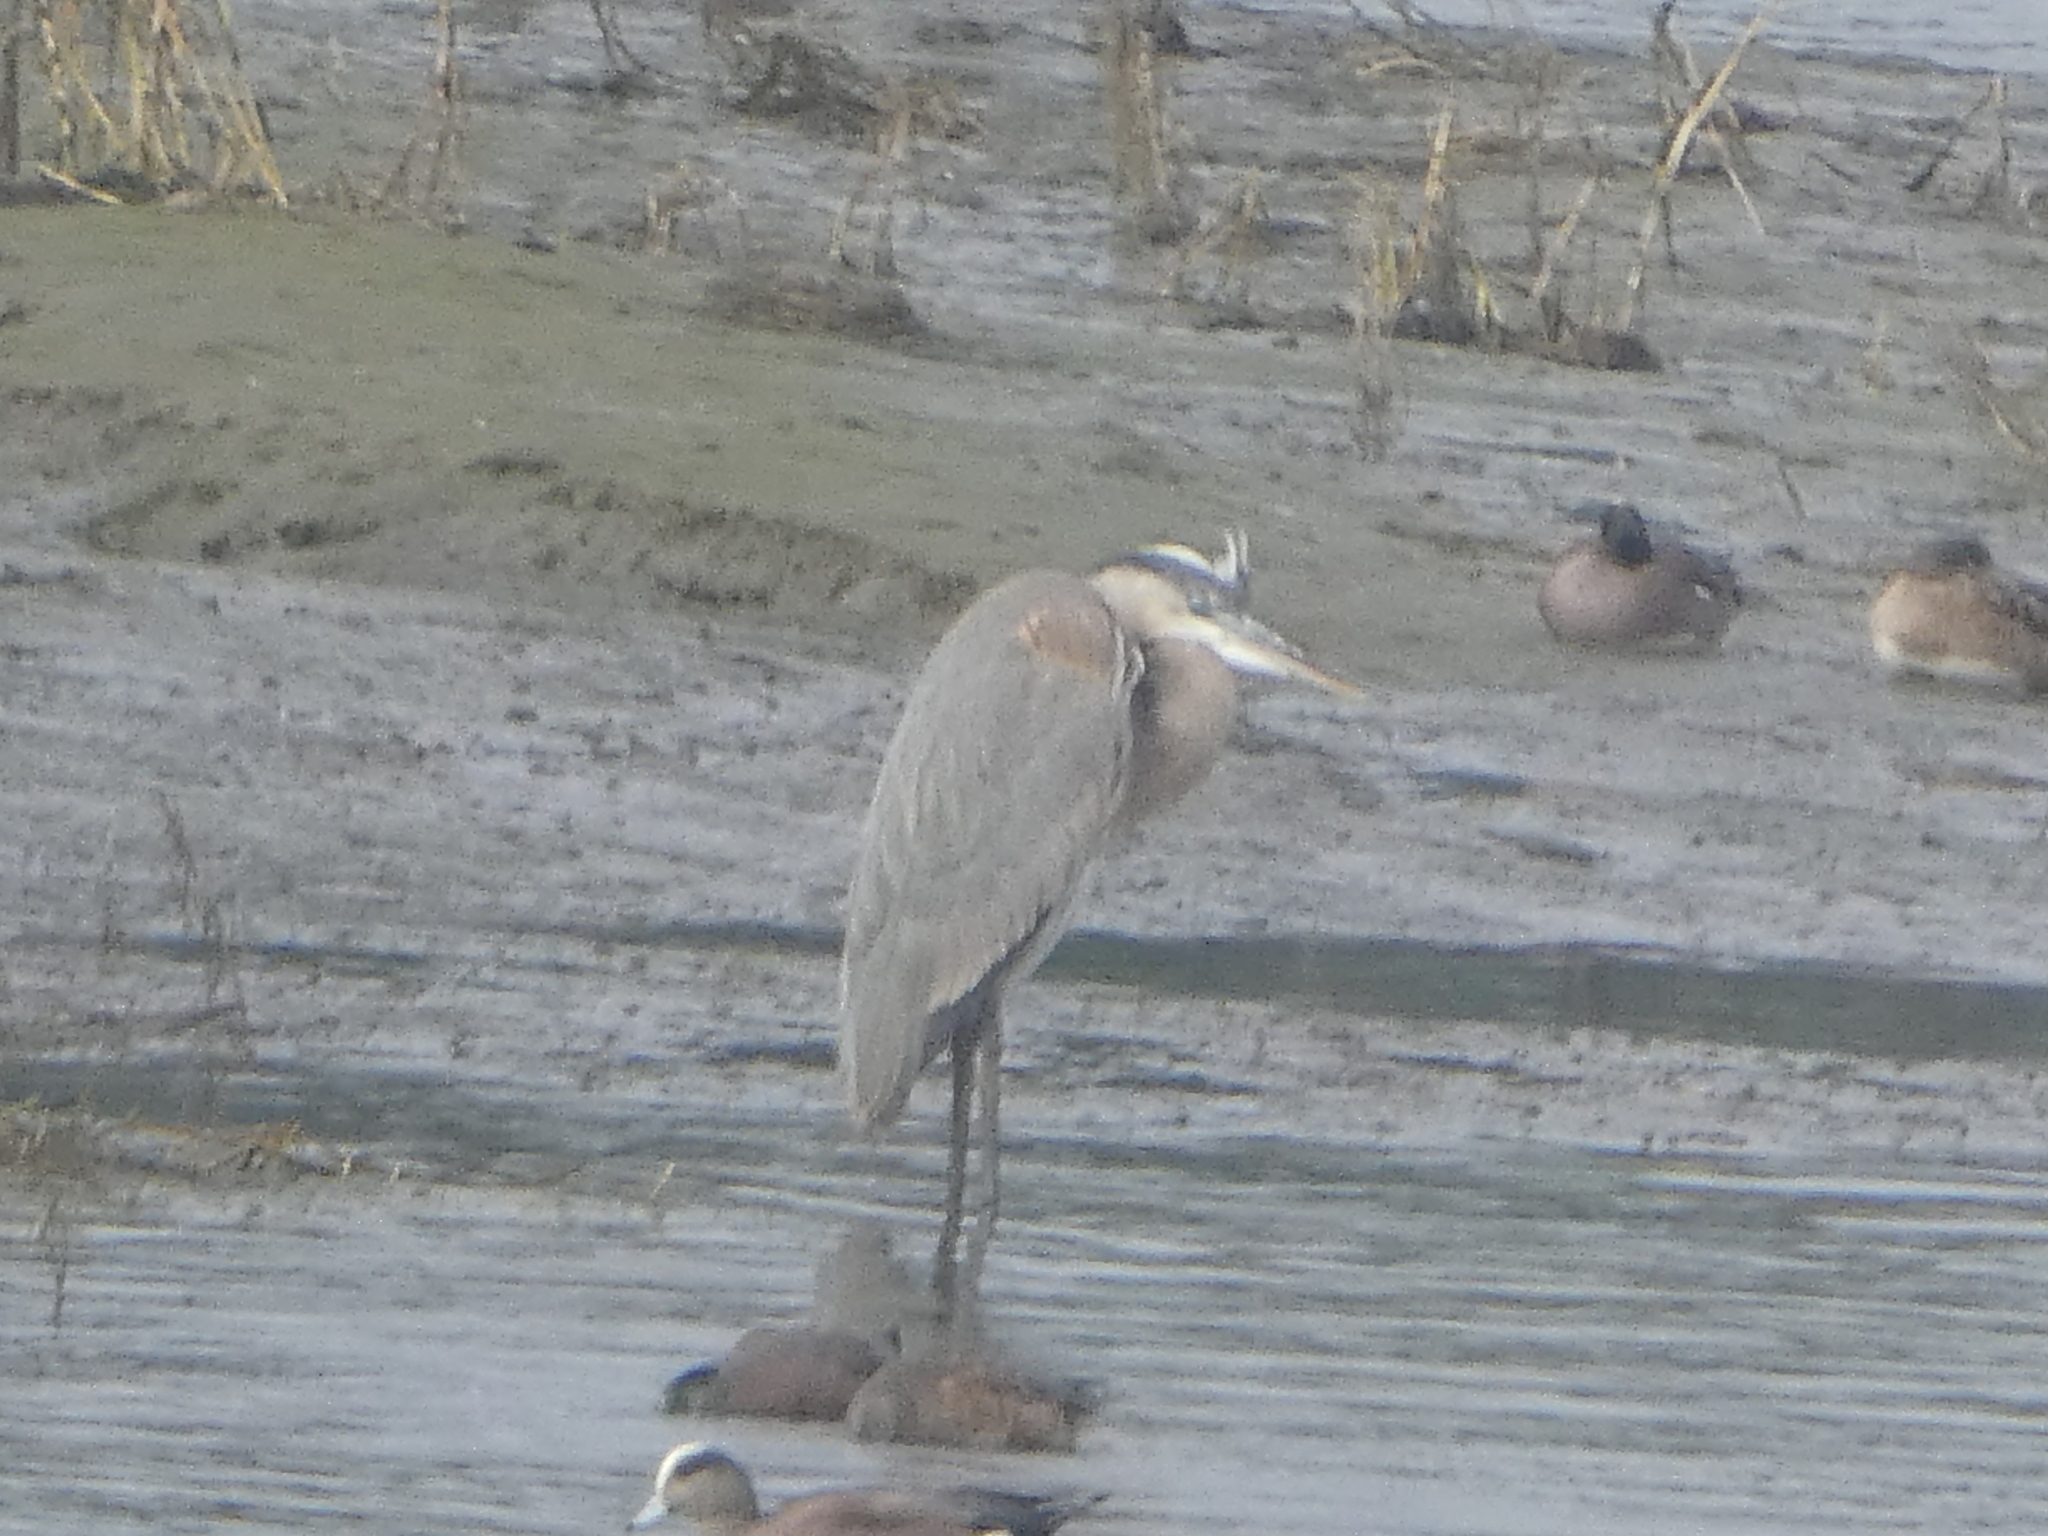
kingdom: Animalia
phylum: Chordata
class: Aves
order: Pelecaniformes
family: Ardeidae
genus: Ardea
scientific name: Ardea herodias
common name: Great blue heron
